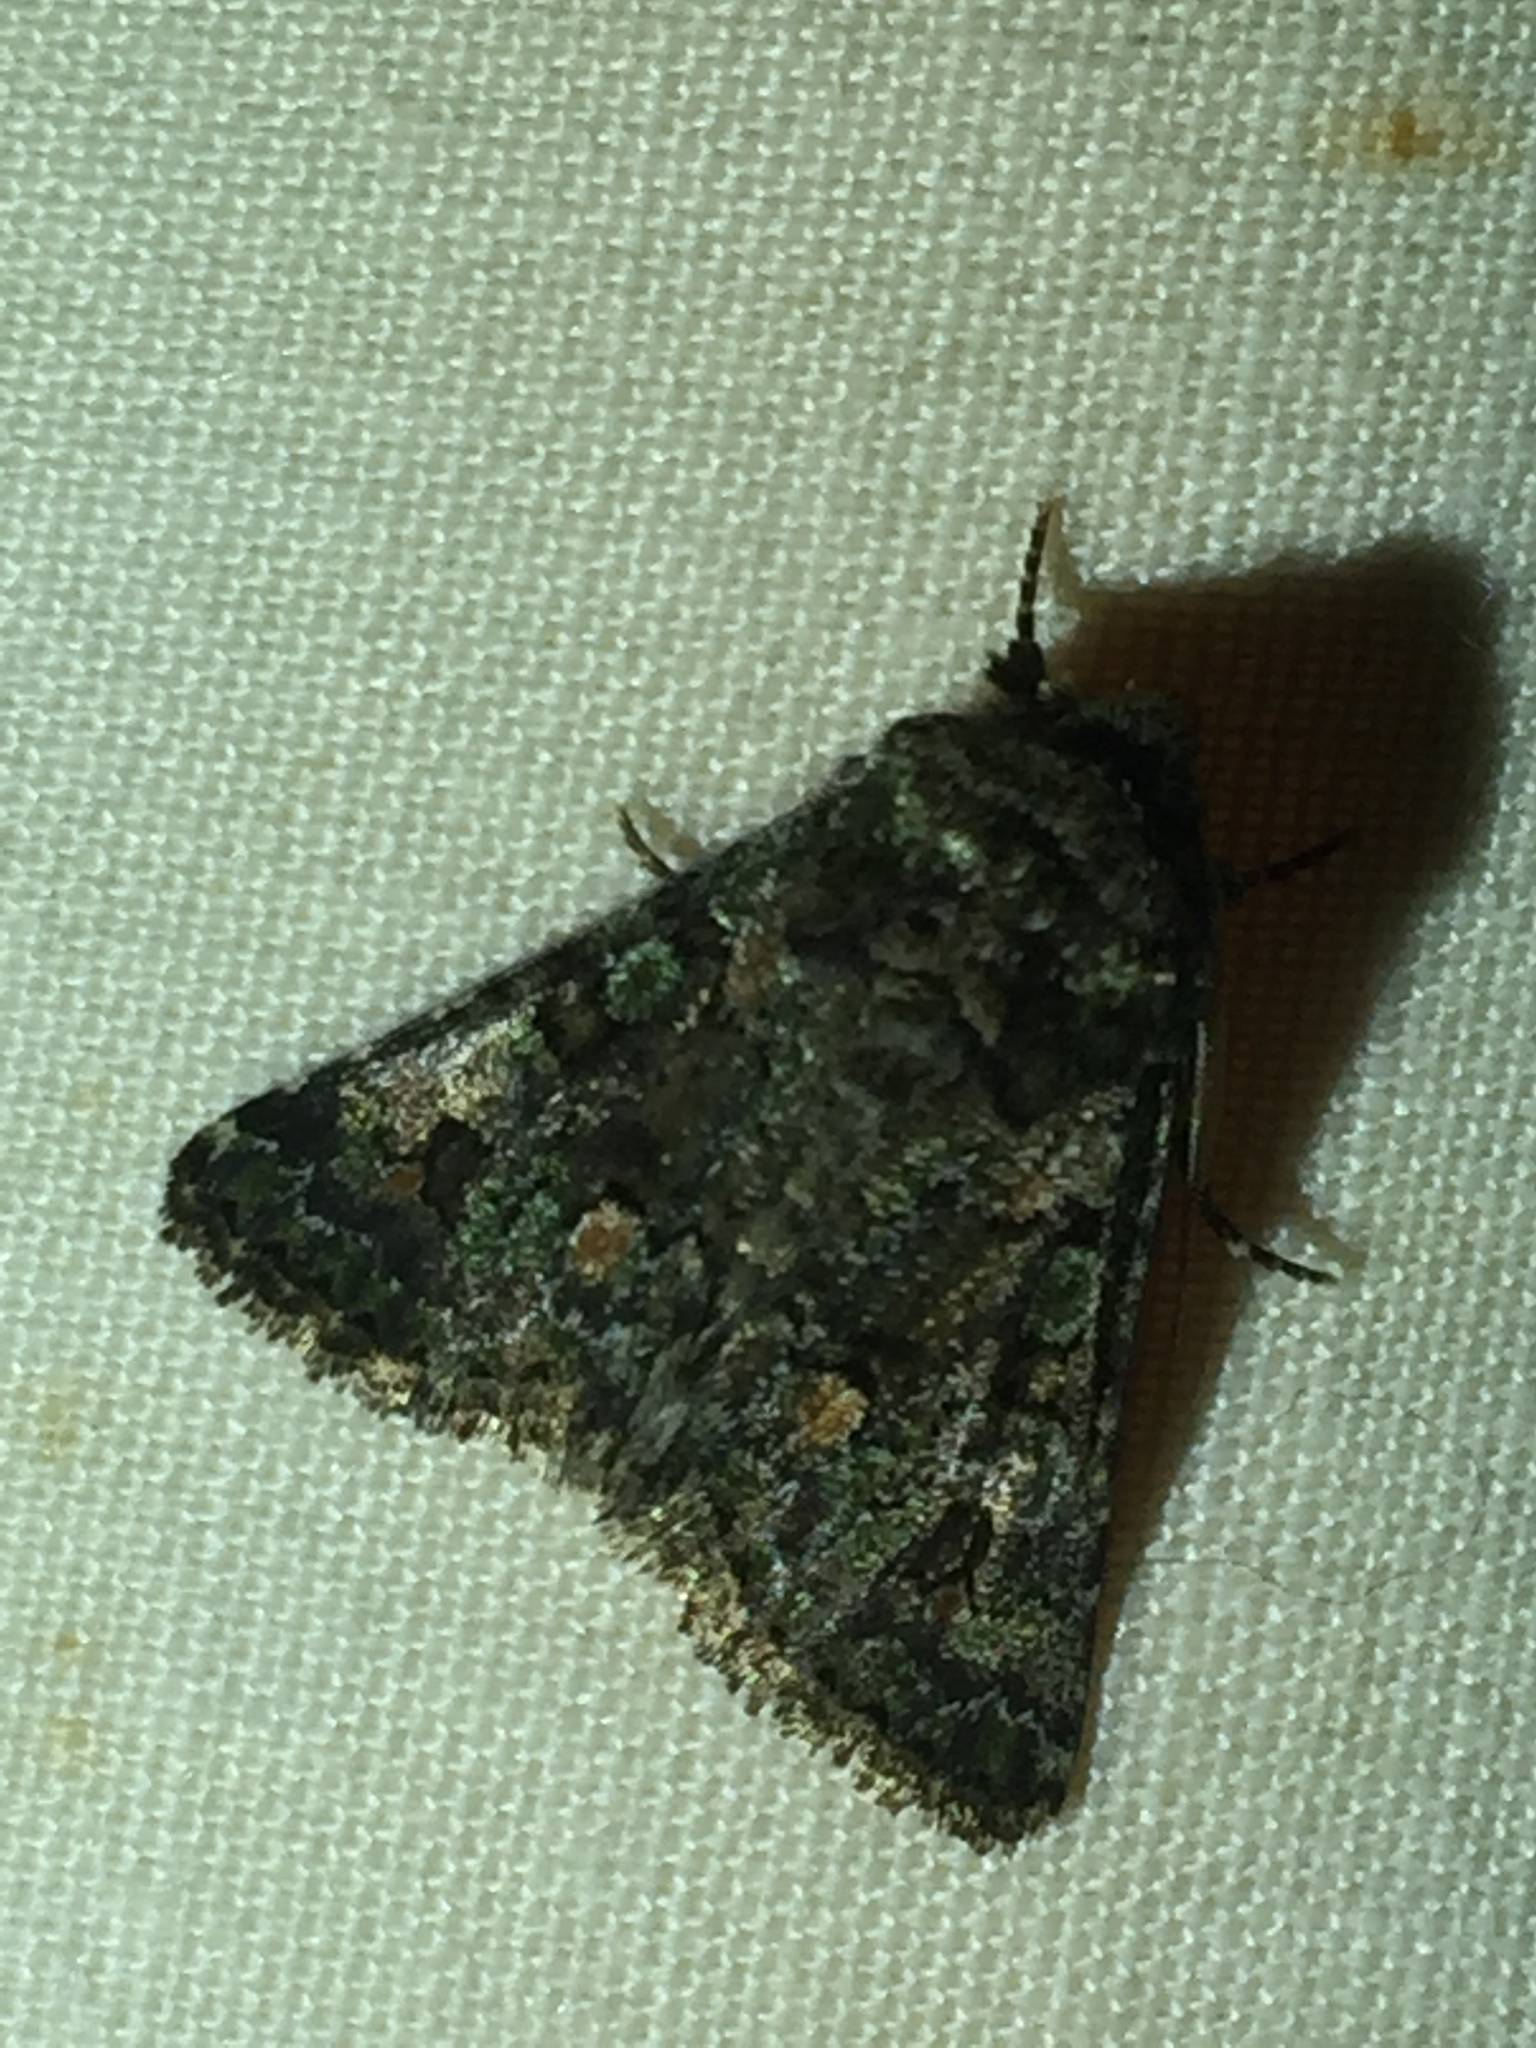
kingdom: Animalia
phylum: Arthropoda
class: Insecta
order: Lepidoptera
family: Noctuidae
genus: Klugeana
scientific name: Klugeana philoxalis
